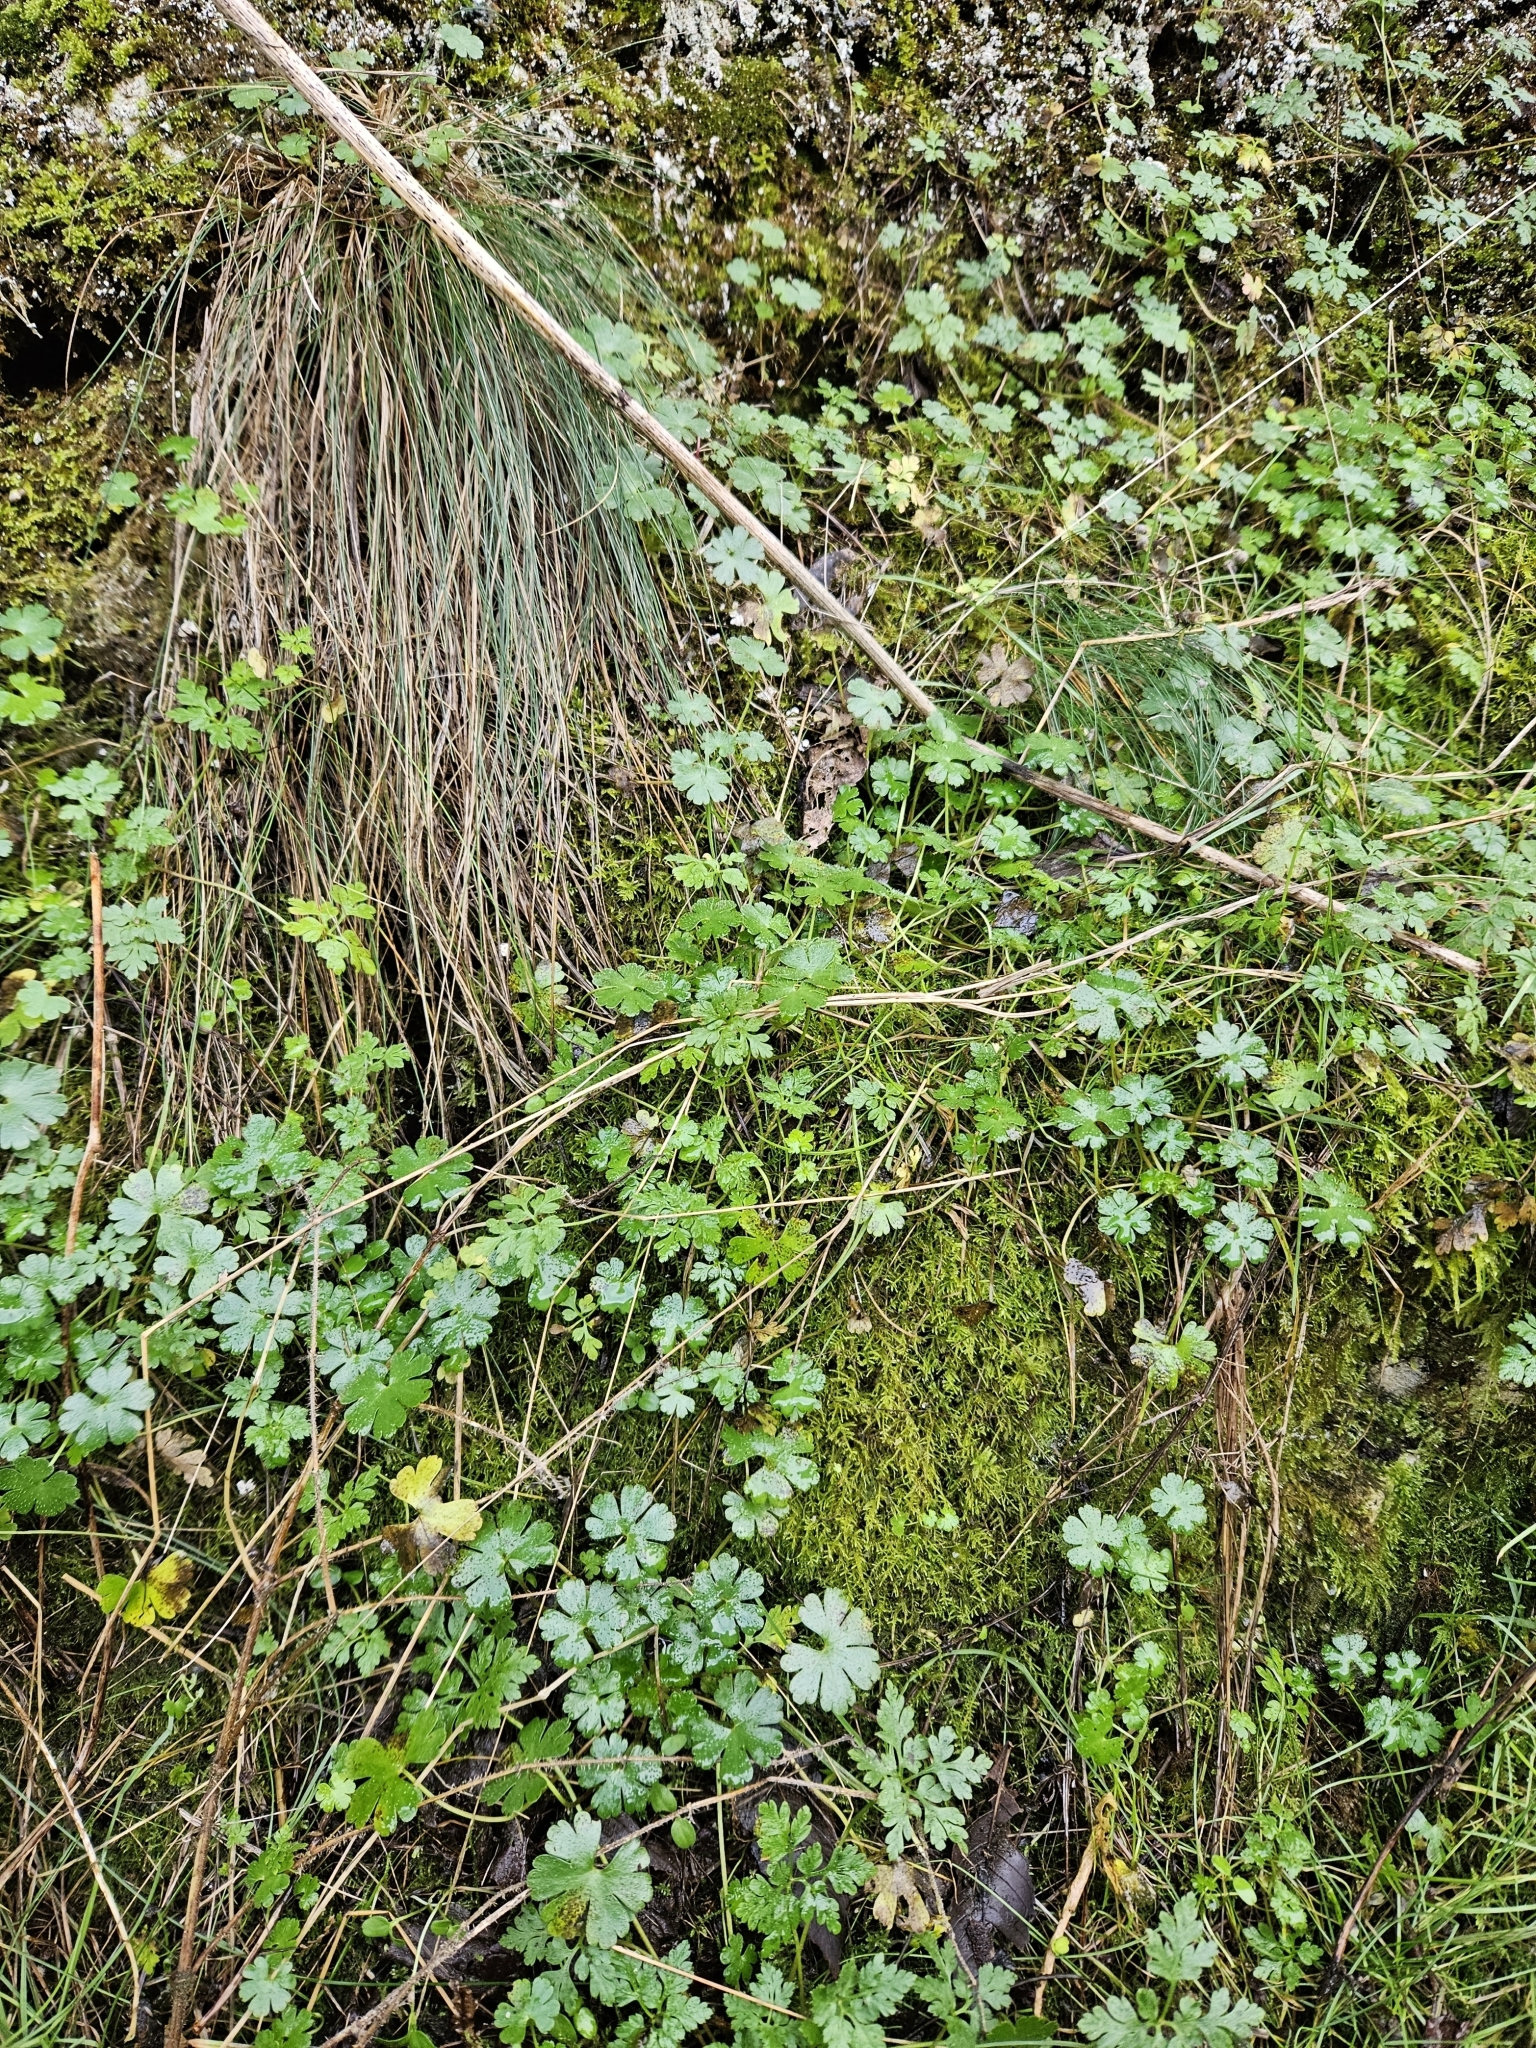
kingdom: Plantae
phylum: Bryophyta
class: Bryopsida
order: Hypnales
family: Brachytheciaceae
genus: Kindbergia
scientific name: Kindbergia praelonga
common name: Slender beaked moss
